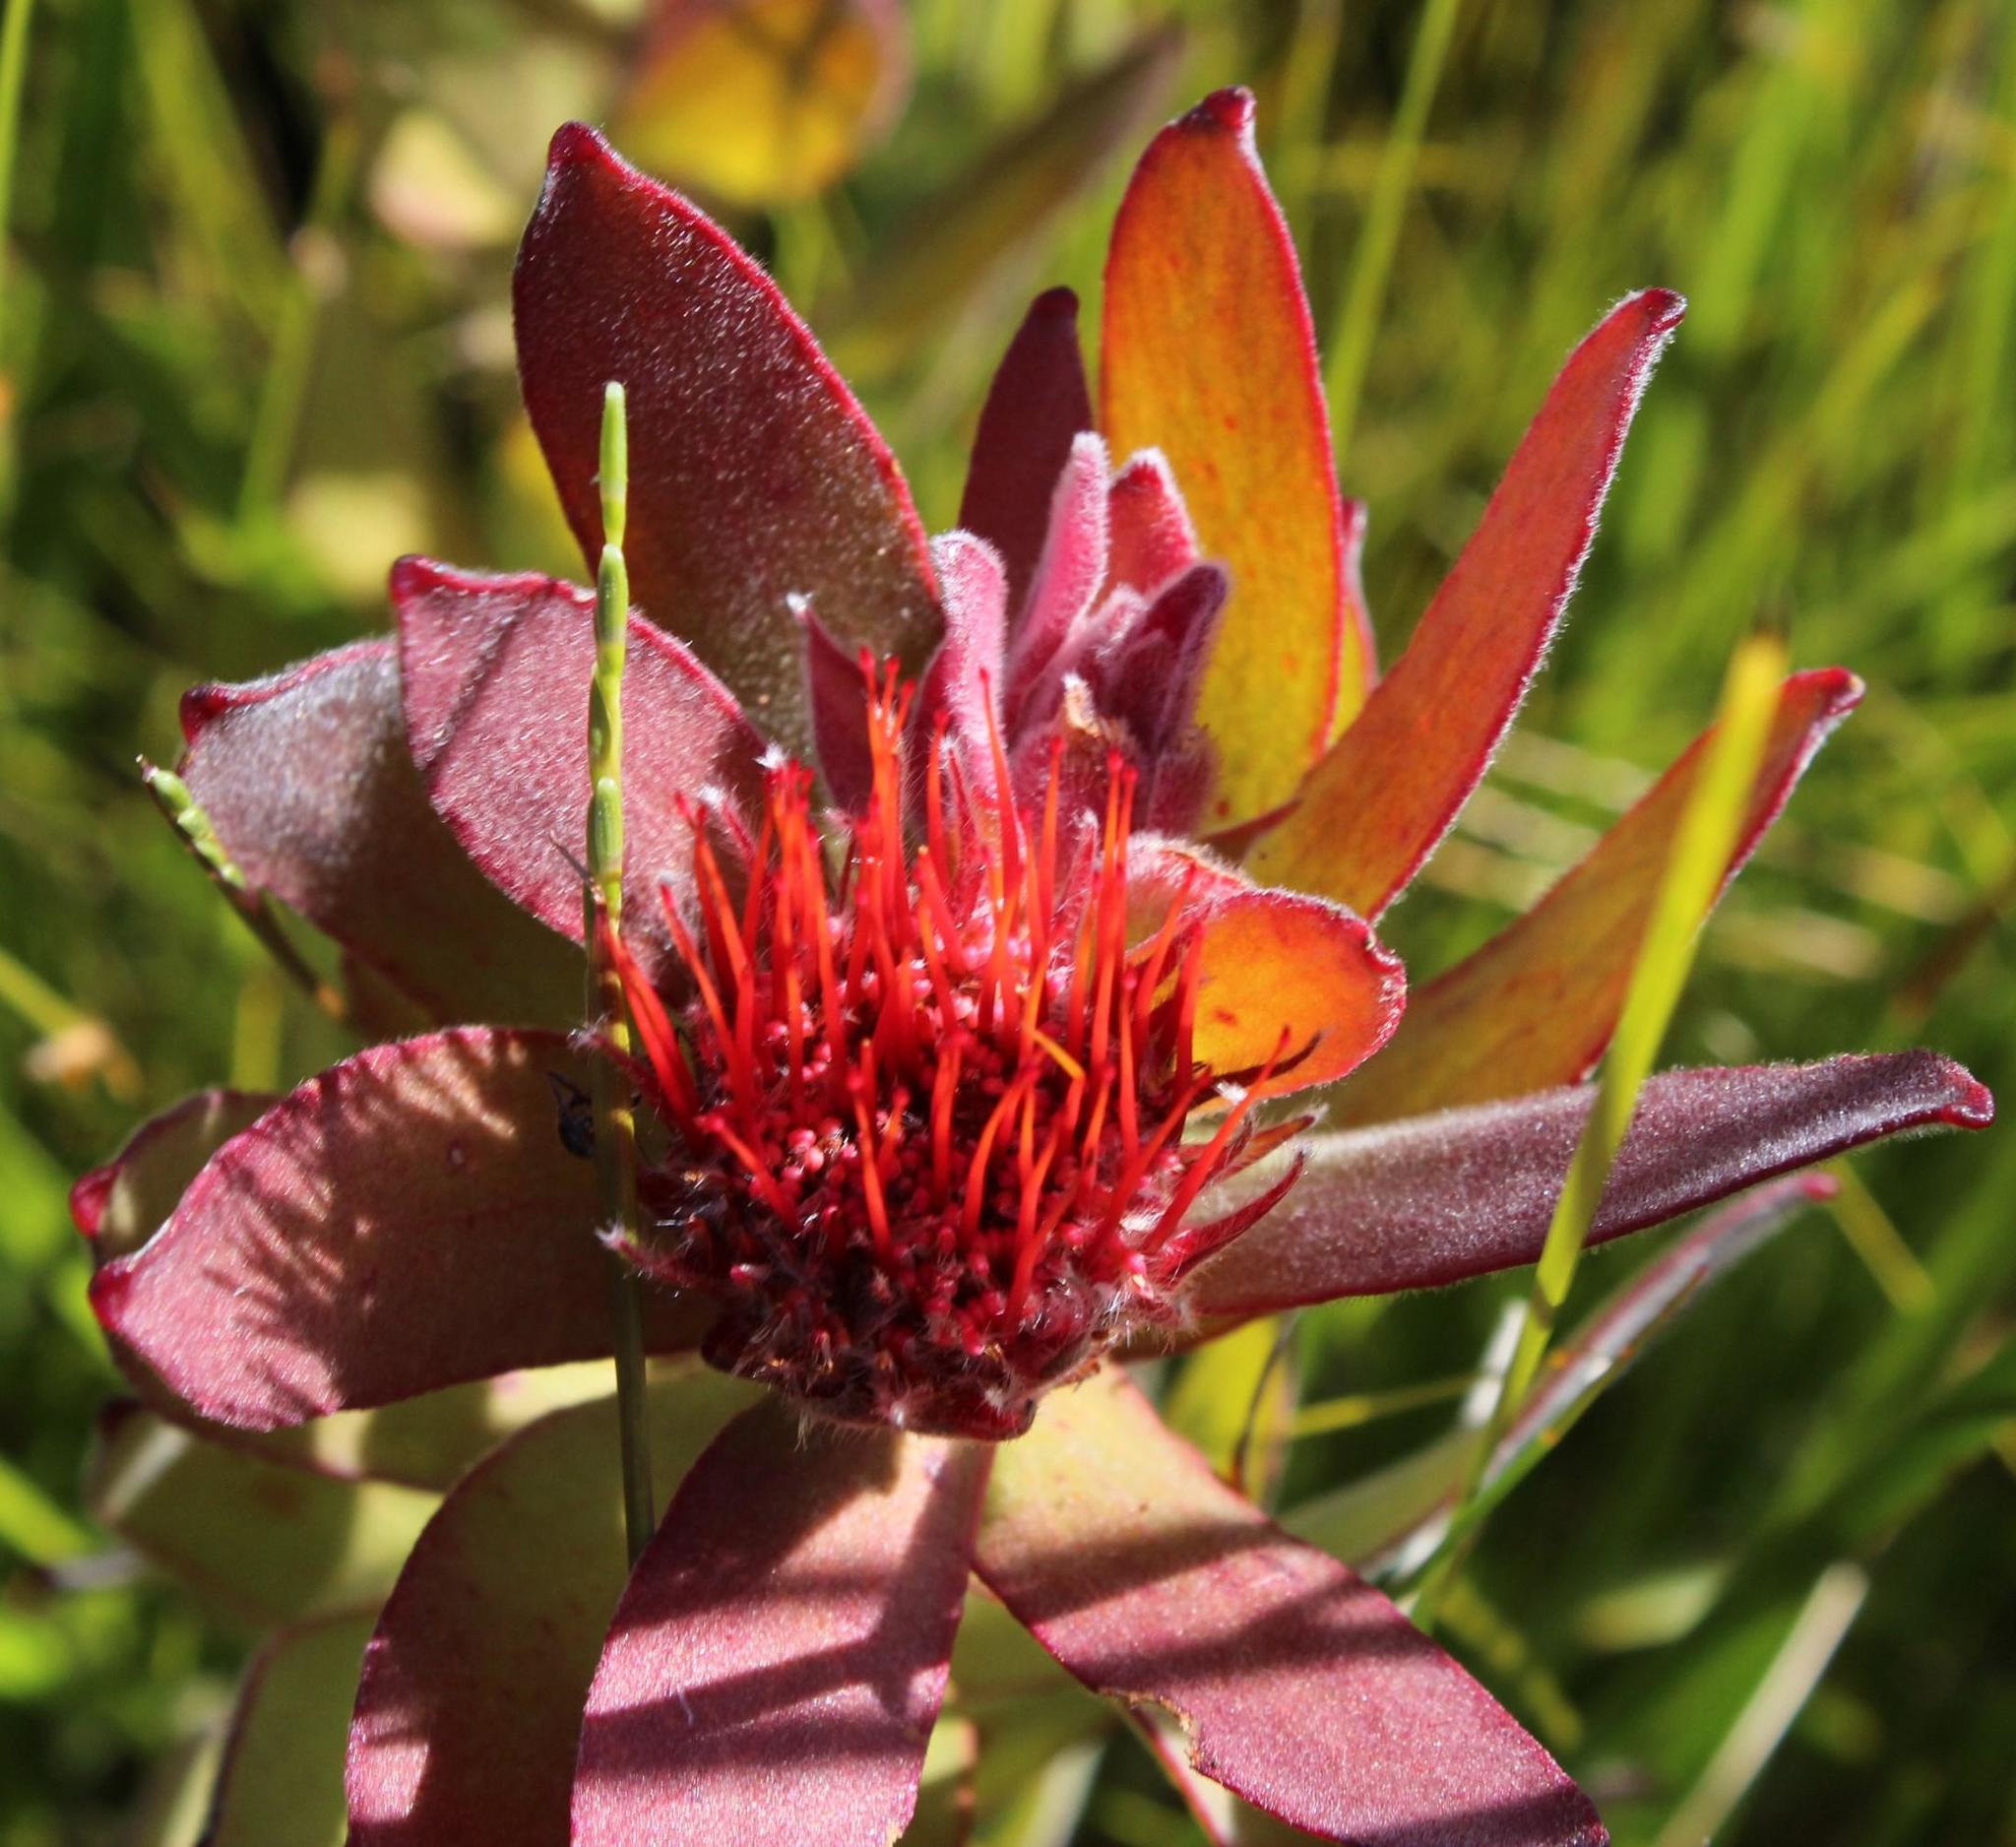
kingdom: Plantae
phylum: Tracheophyta
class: Magnoliopsida
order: Proteales
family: Proteaceae
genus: Leucospermum
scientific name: Leucospermum oleifolium
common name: Matches
